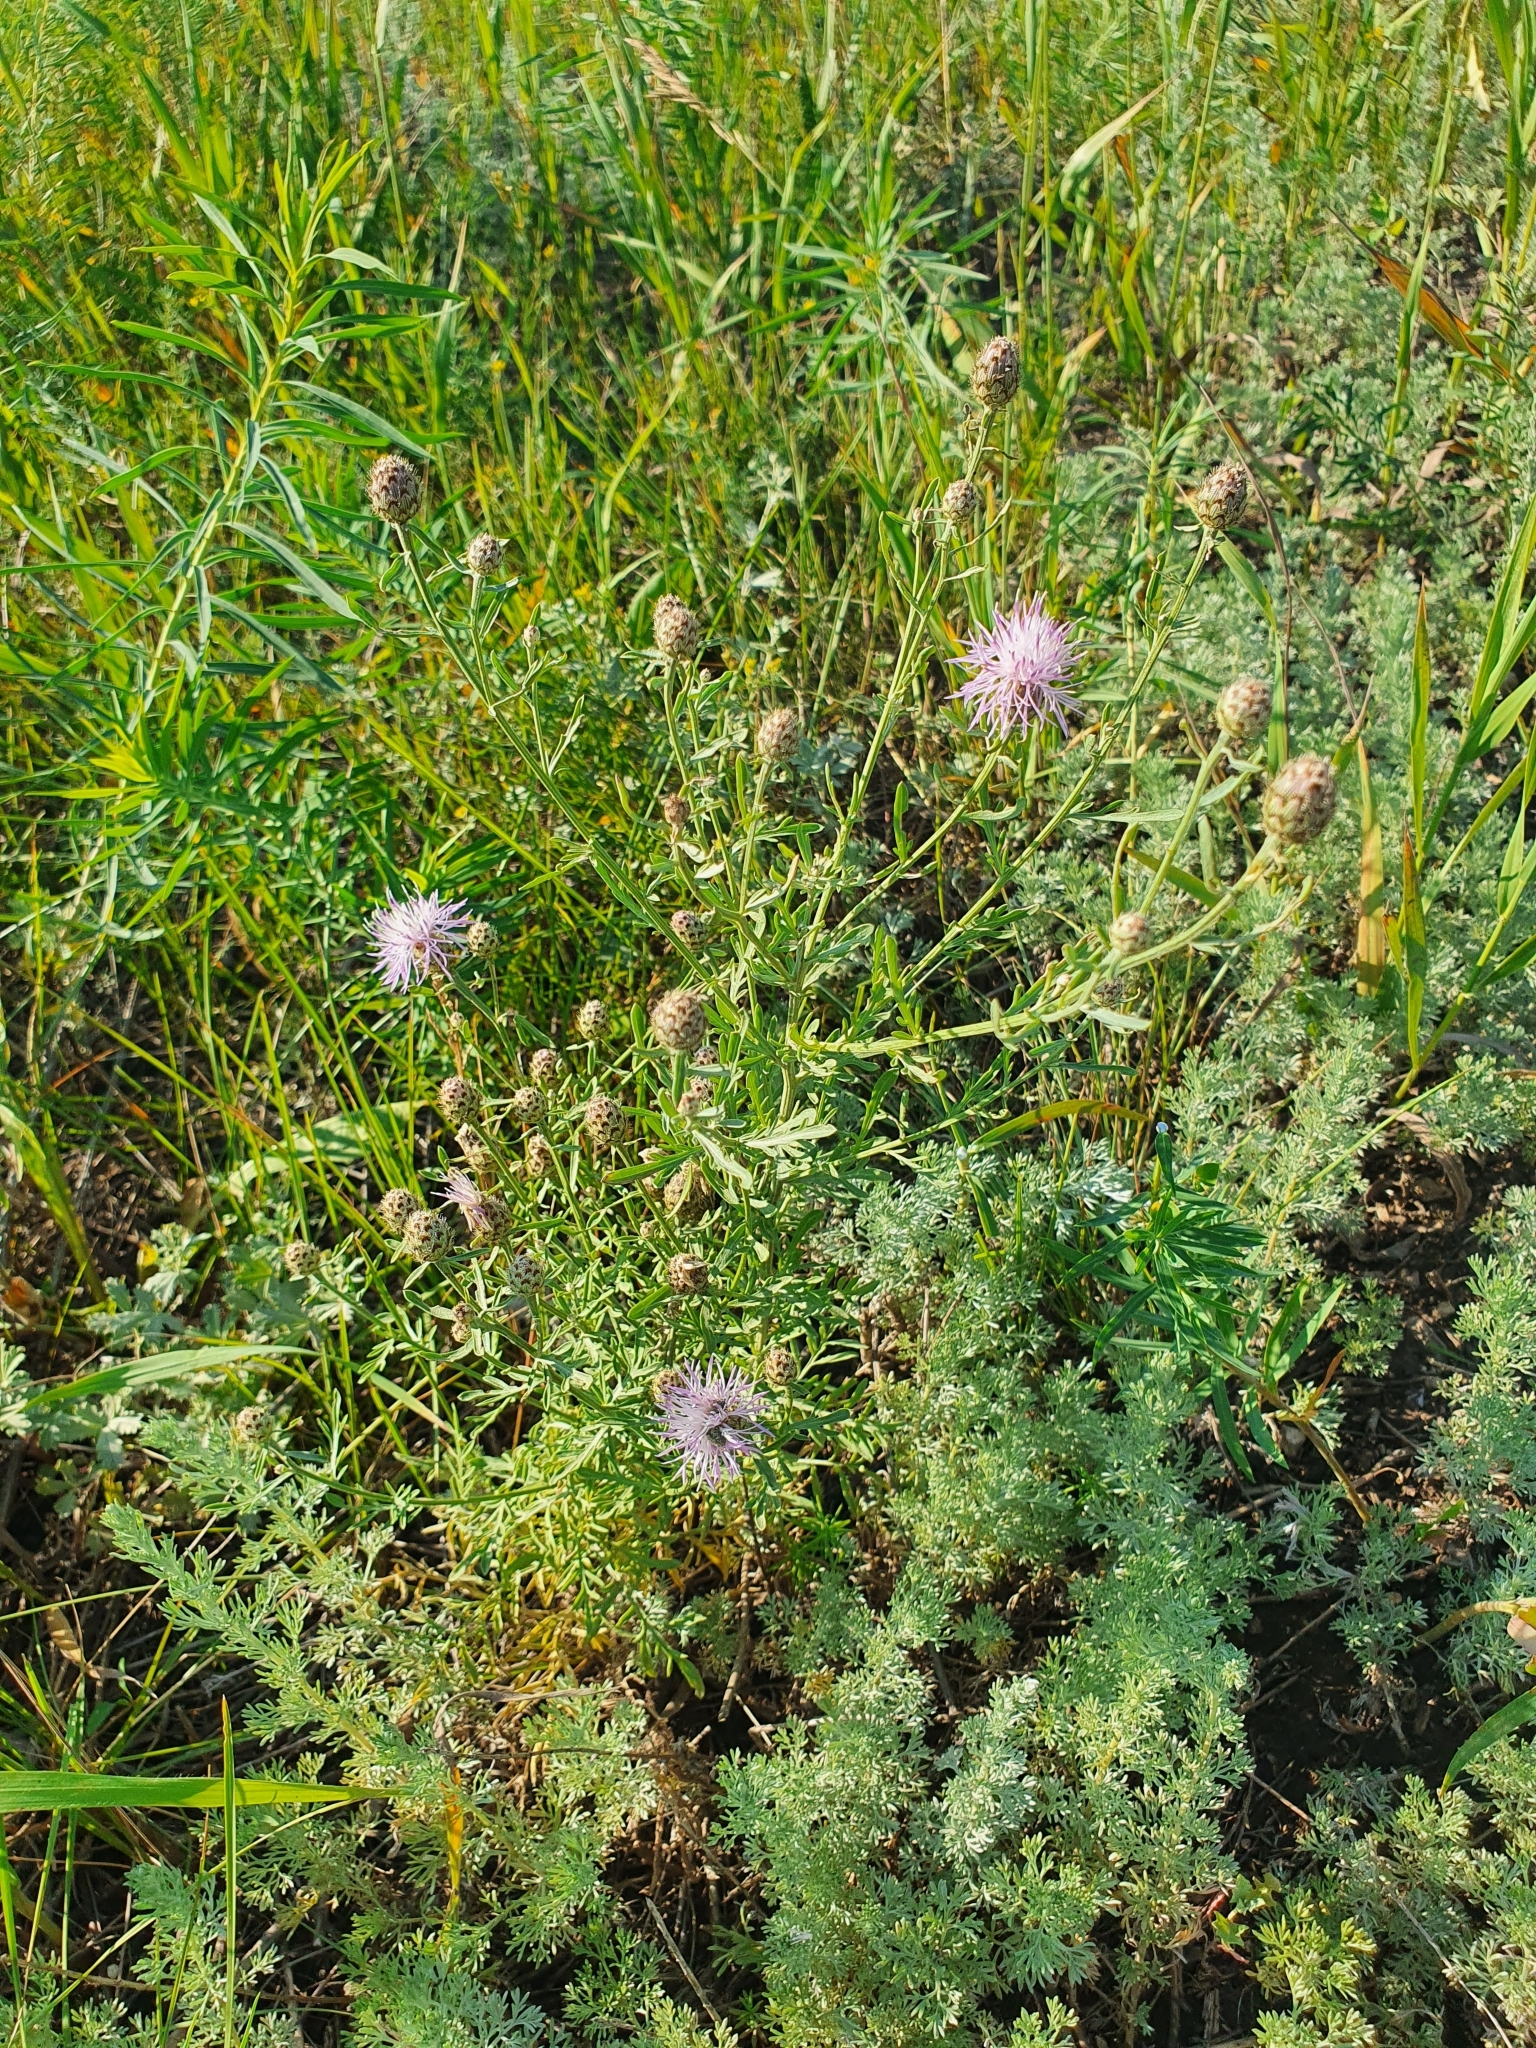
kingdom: Plantae
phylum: Tracheophyta
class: Magnoliopsida
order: Asterales
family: Asteraceae
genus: Centaurea
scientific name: Centaurea stoebe
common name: Spotted knapweed
